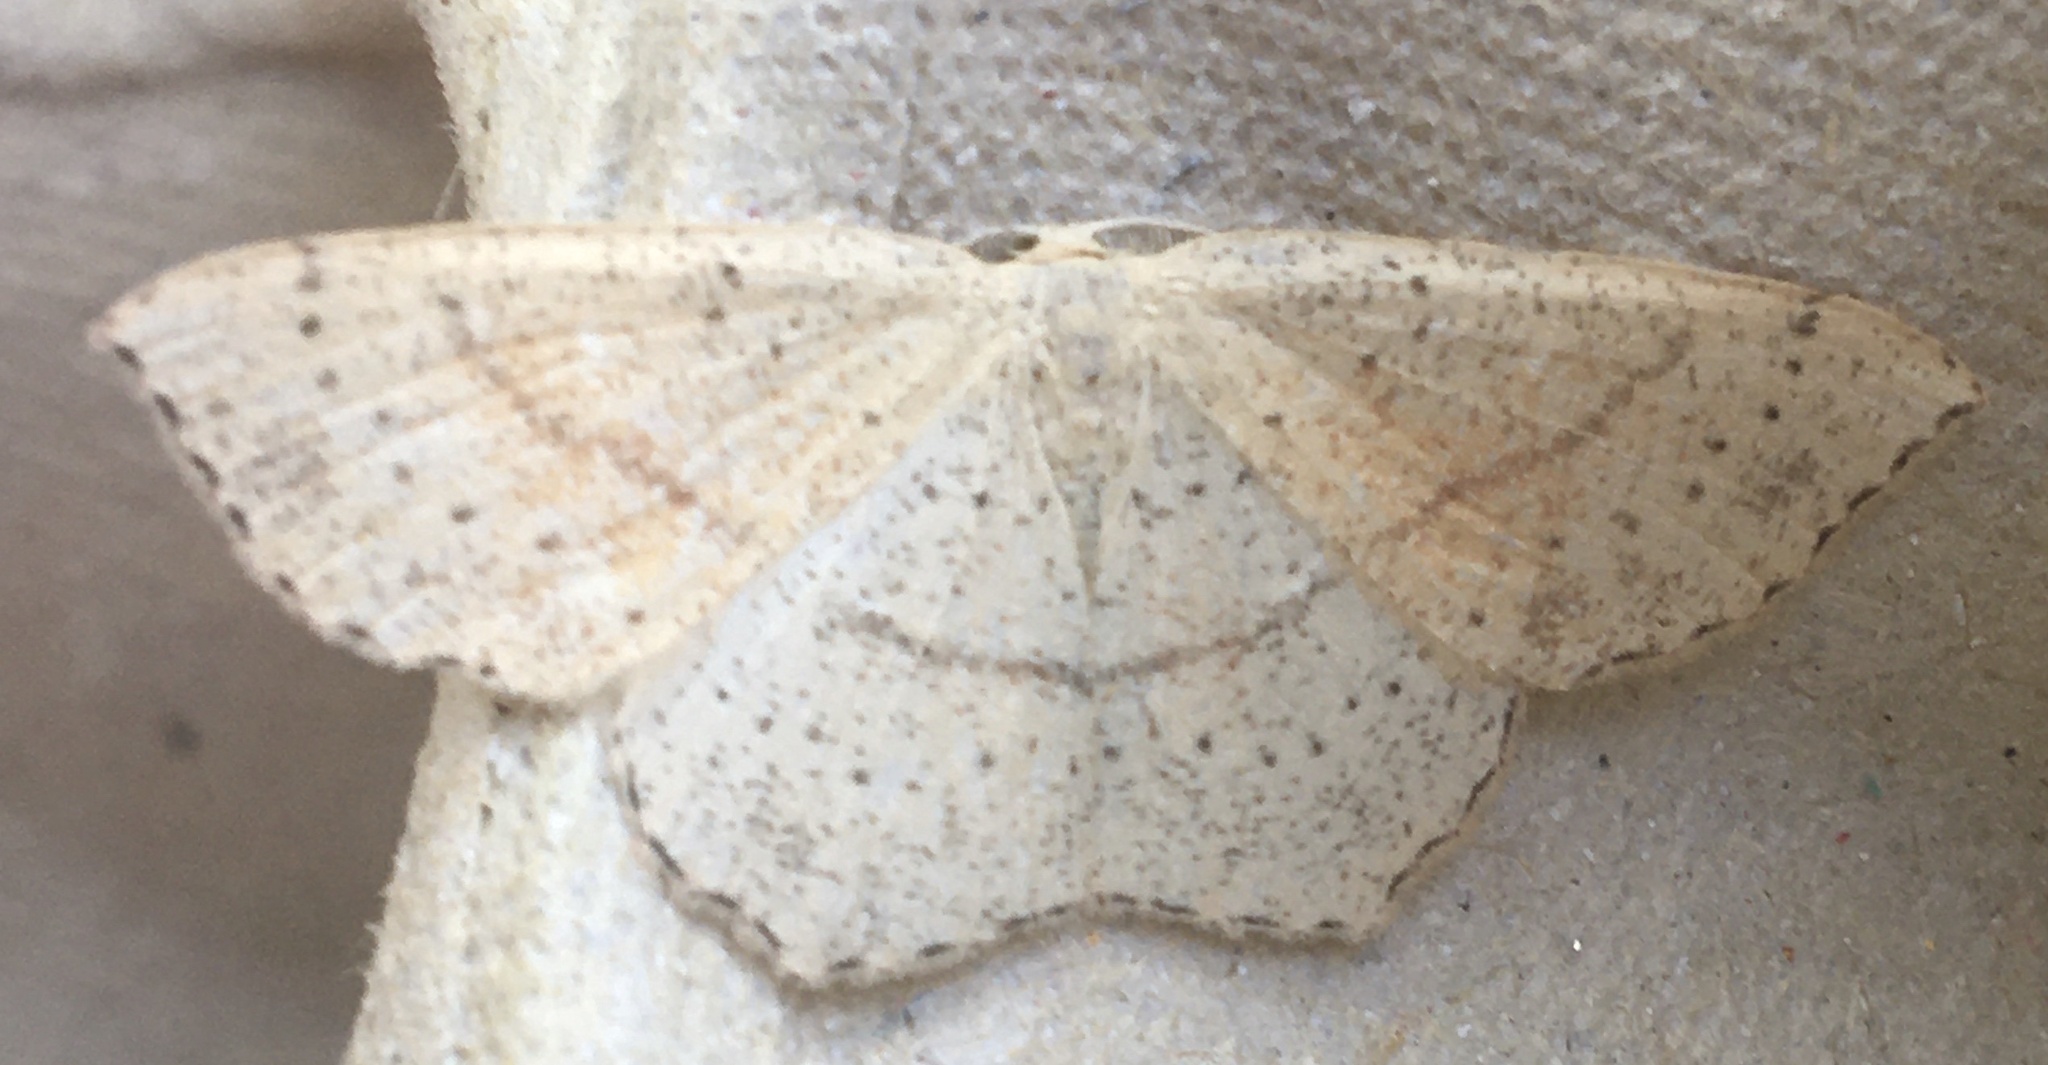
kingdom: Animalia
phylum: Arthropoda
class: Insecta
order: Lepidoptera
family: Geometridae
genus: Cyclophora
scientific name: Cyclophora punctaria
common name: Maiden's blush
